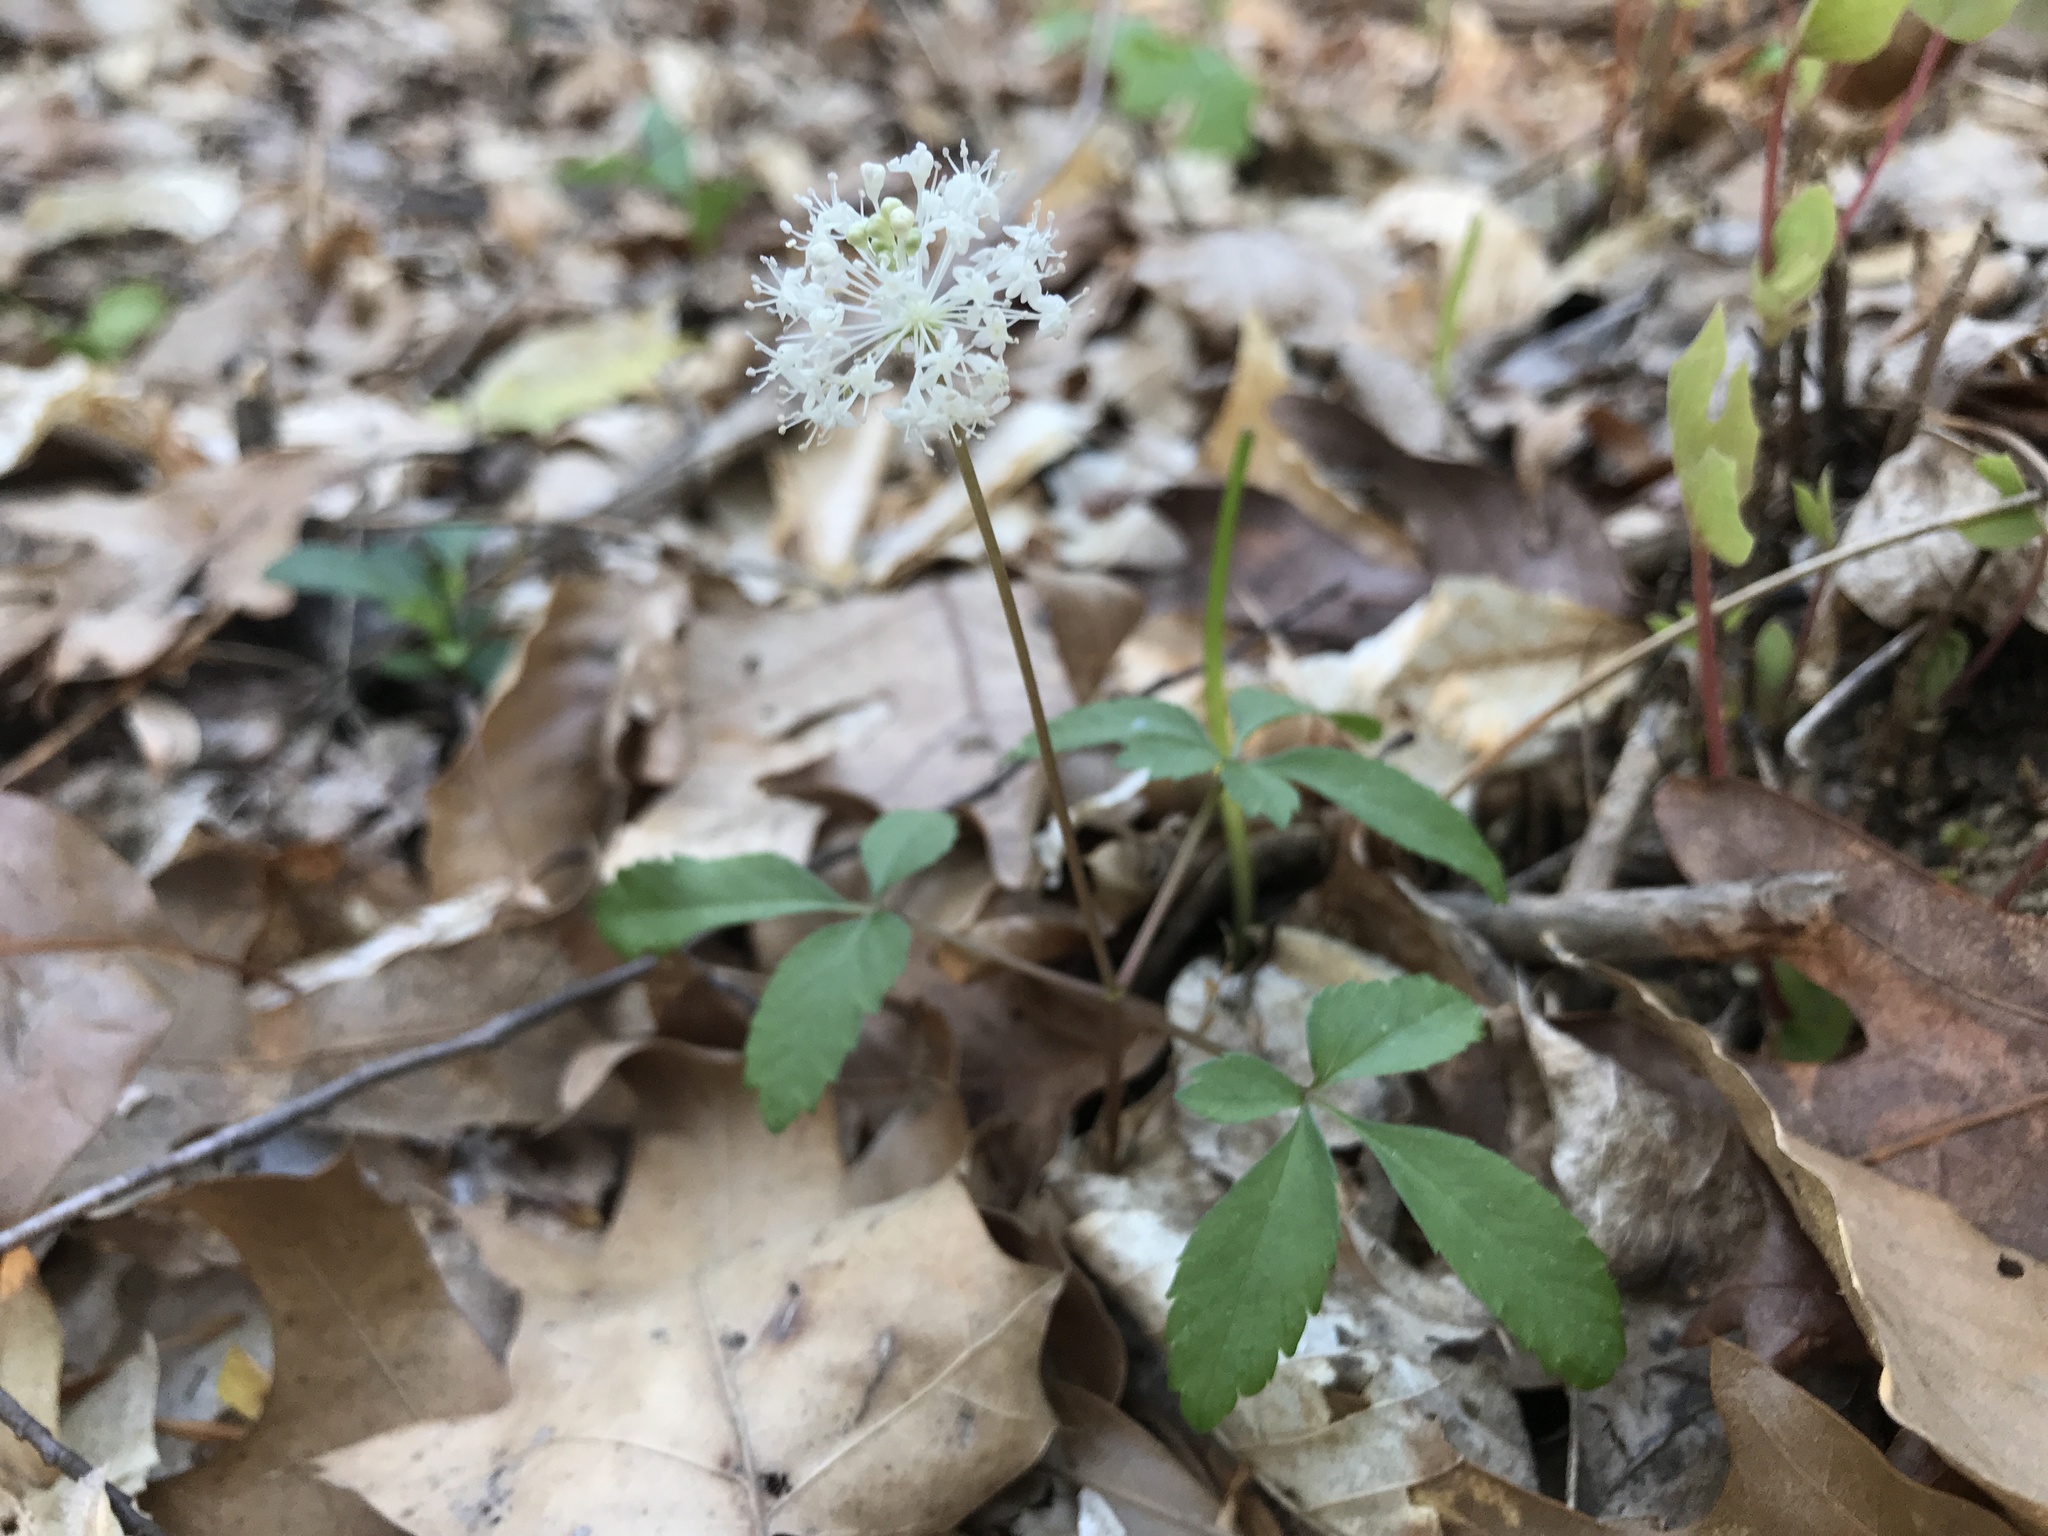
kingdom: Plantae
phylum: Tracheophyta
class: Magnoliopsida
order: Apiales
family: Araliaceae
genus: Panax
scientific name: Panax trifolius
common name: Dwarf ginseng
